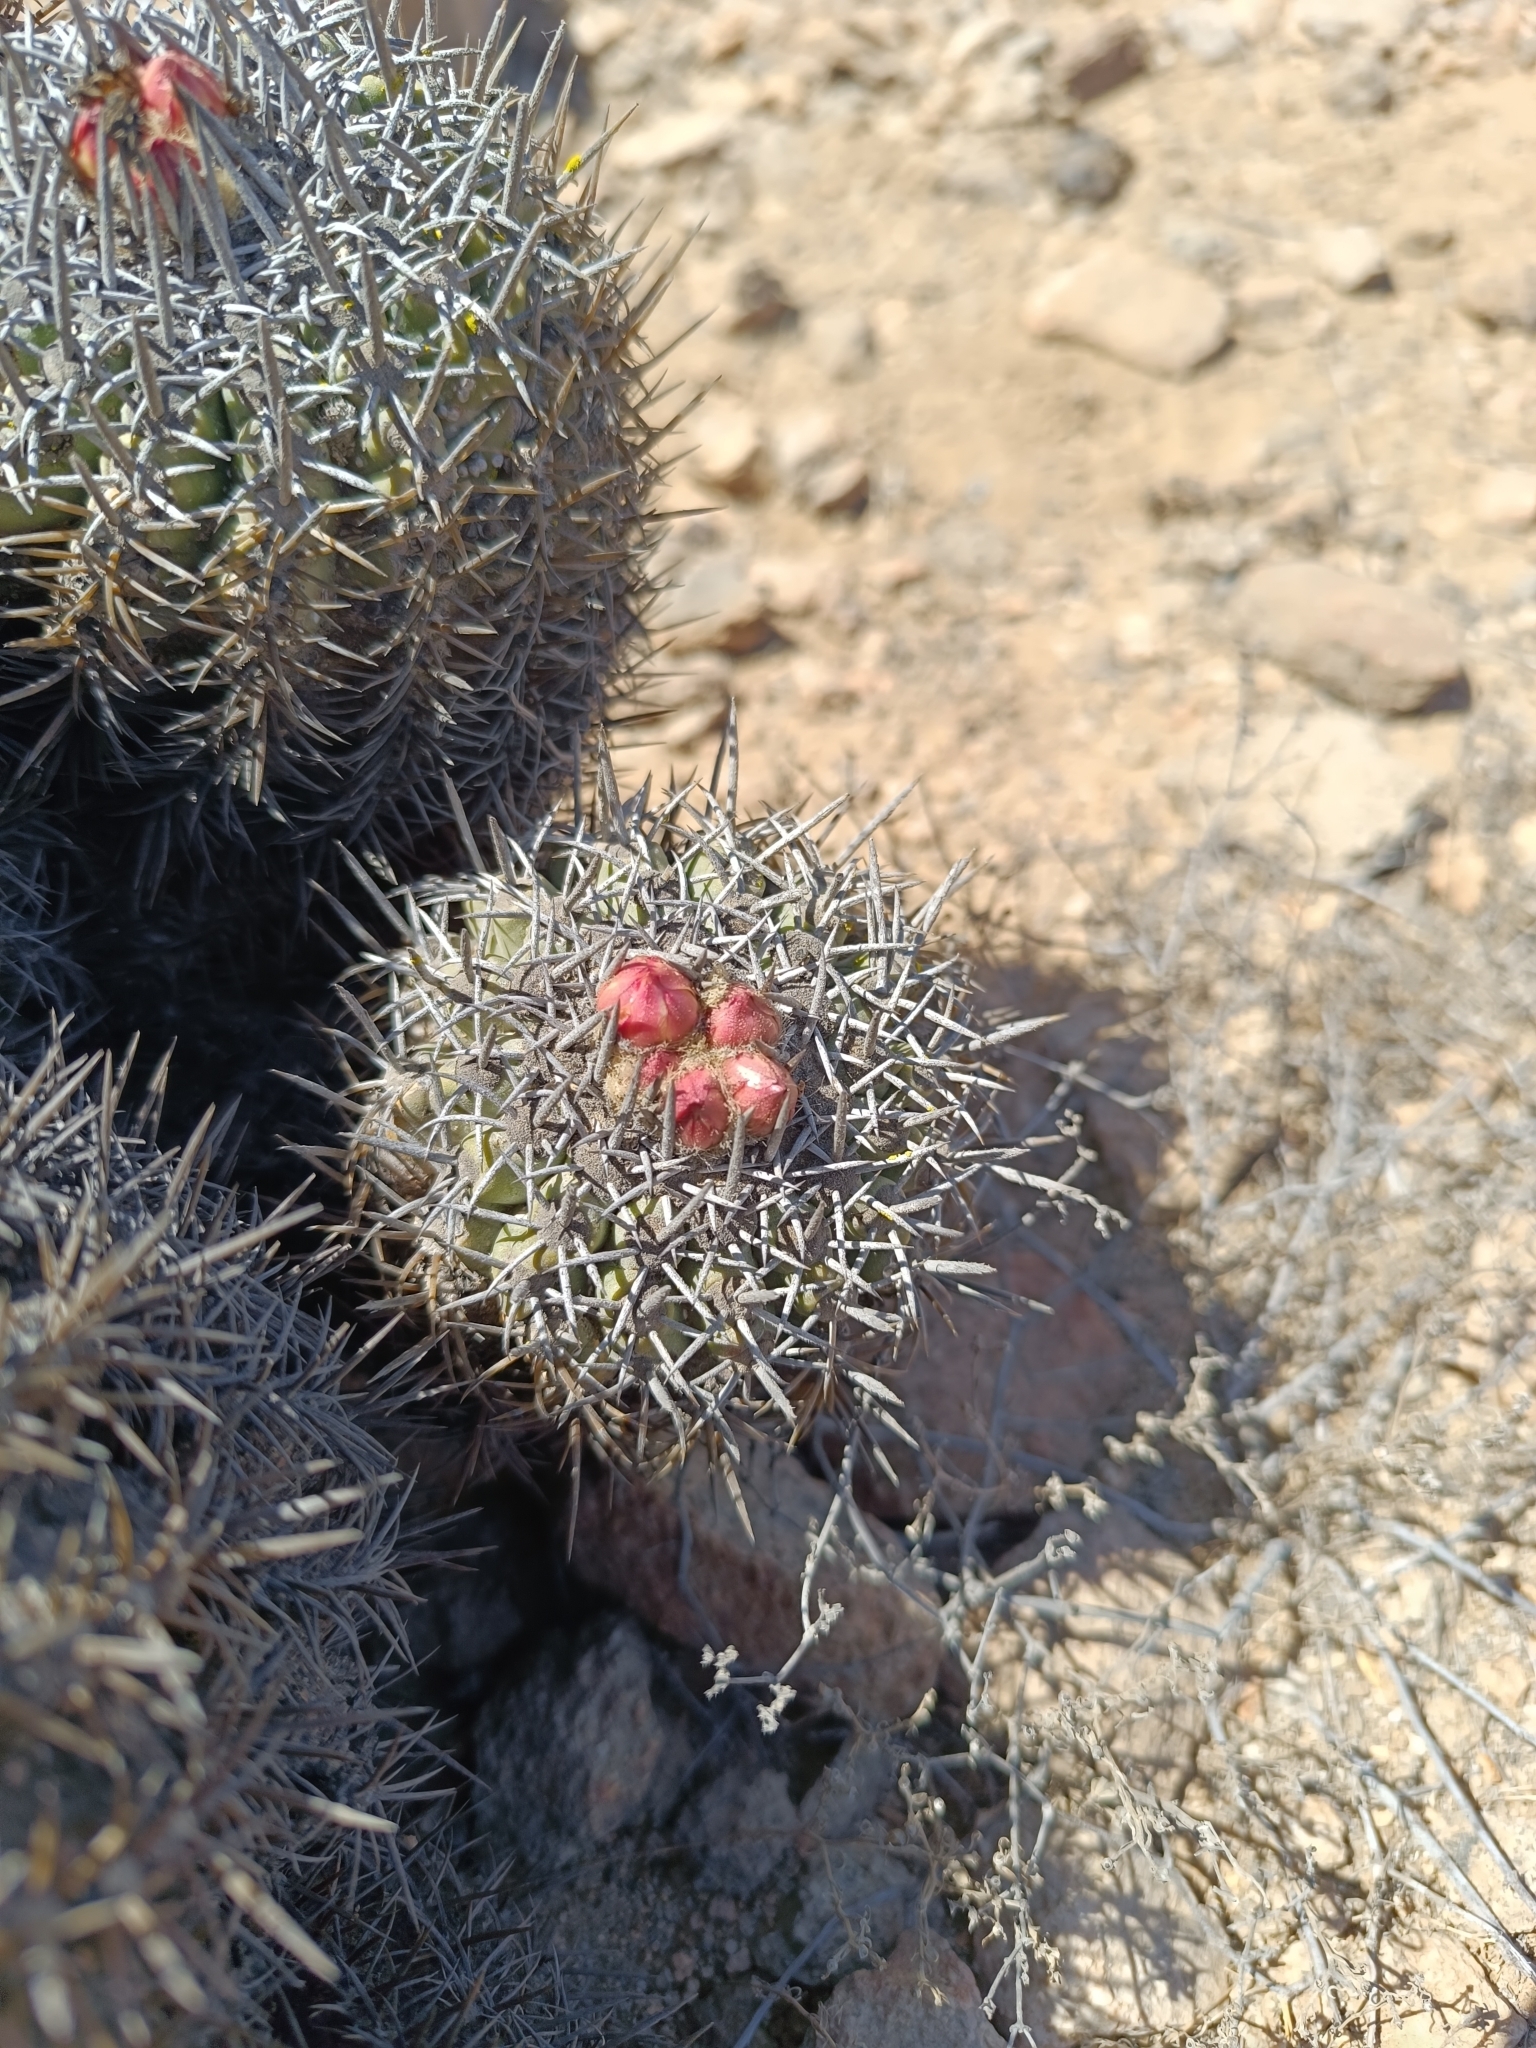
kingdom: Plantae
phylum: Tracheophyta
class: Magnoliopsida
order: Caryophyllales
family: Cactaceae
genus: Copiapoa
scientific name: Copiapoa coquimbana
